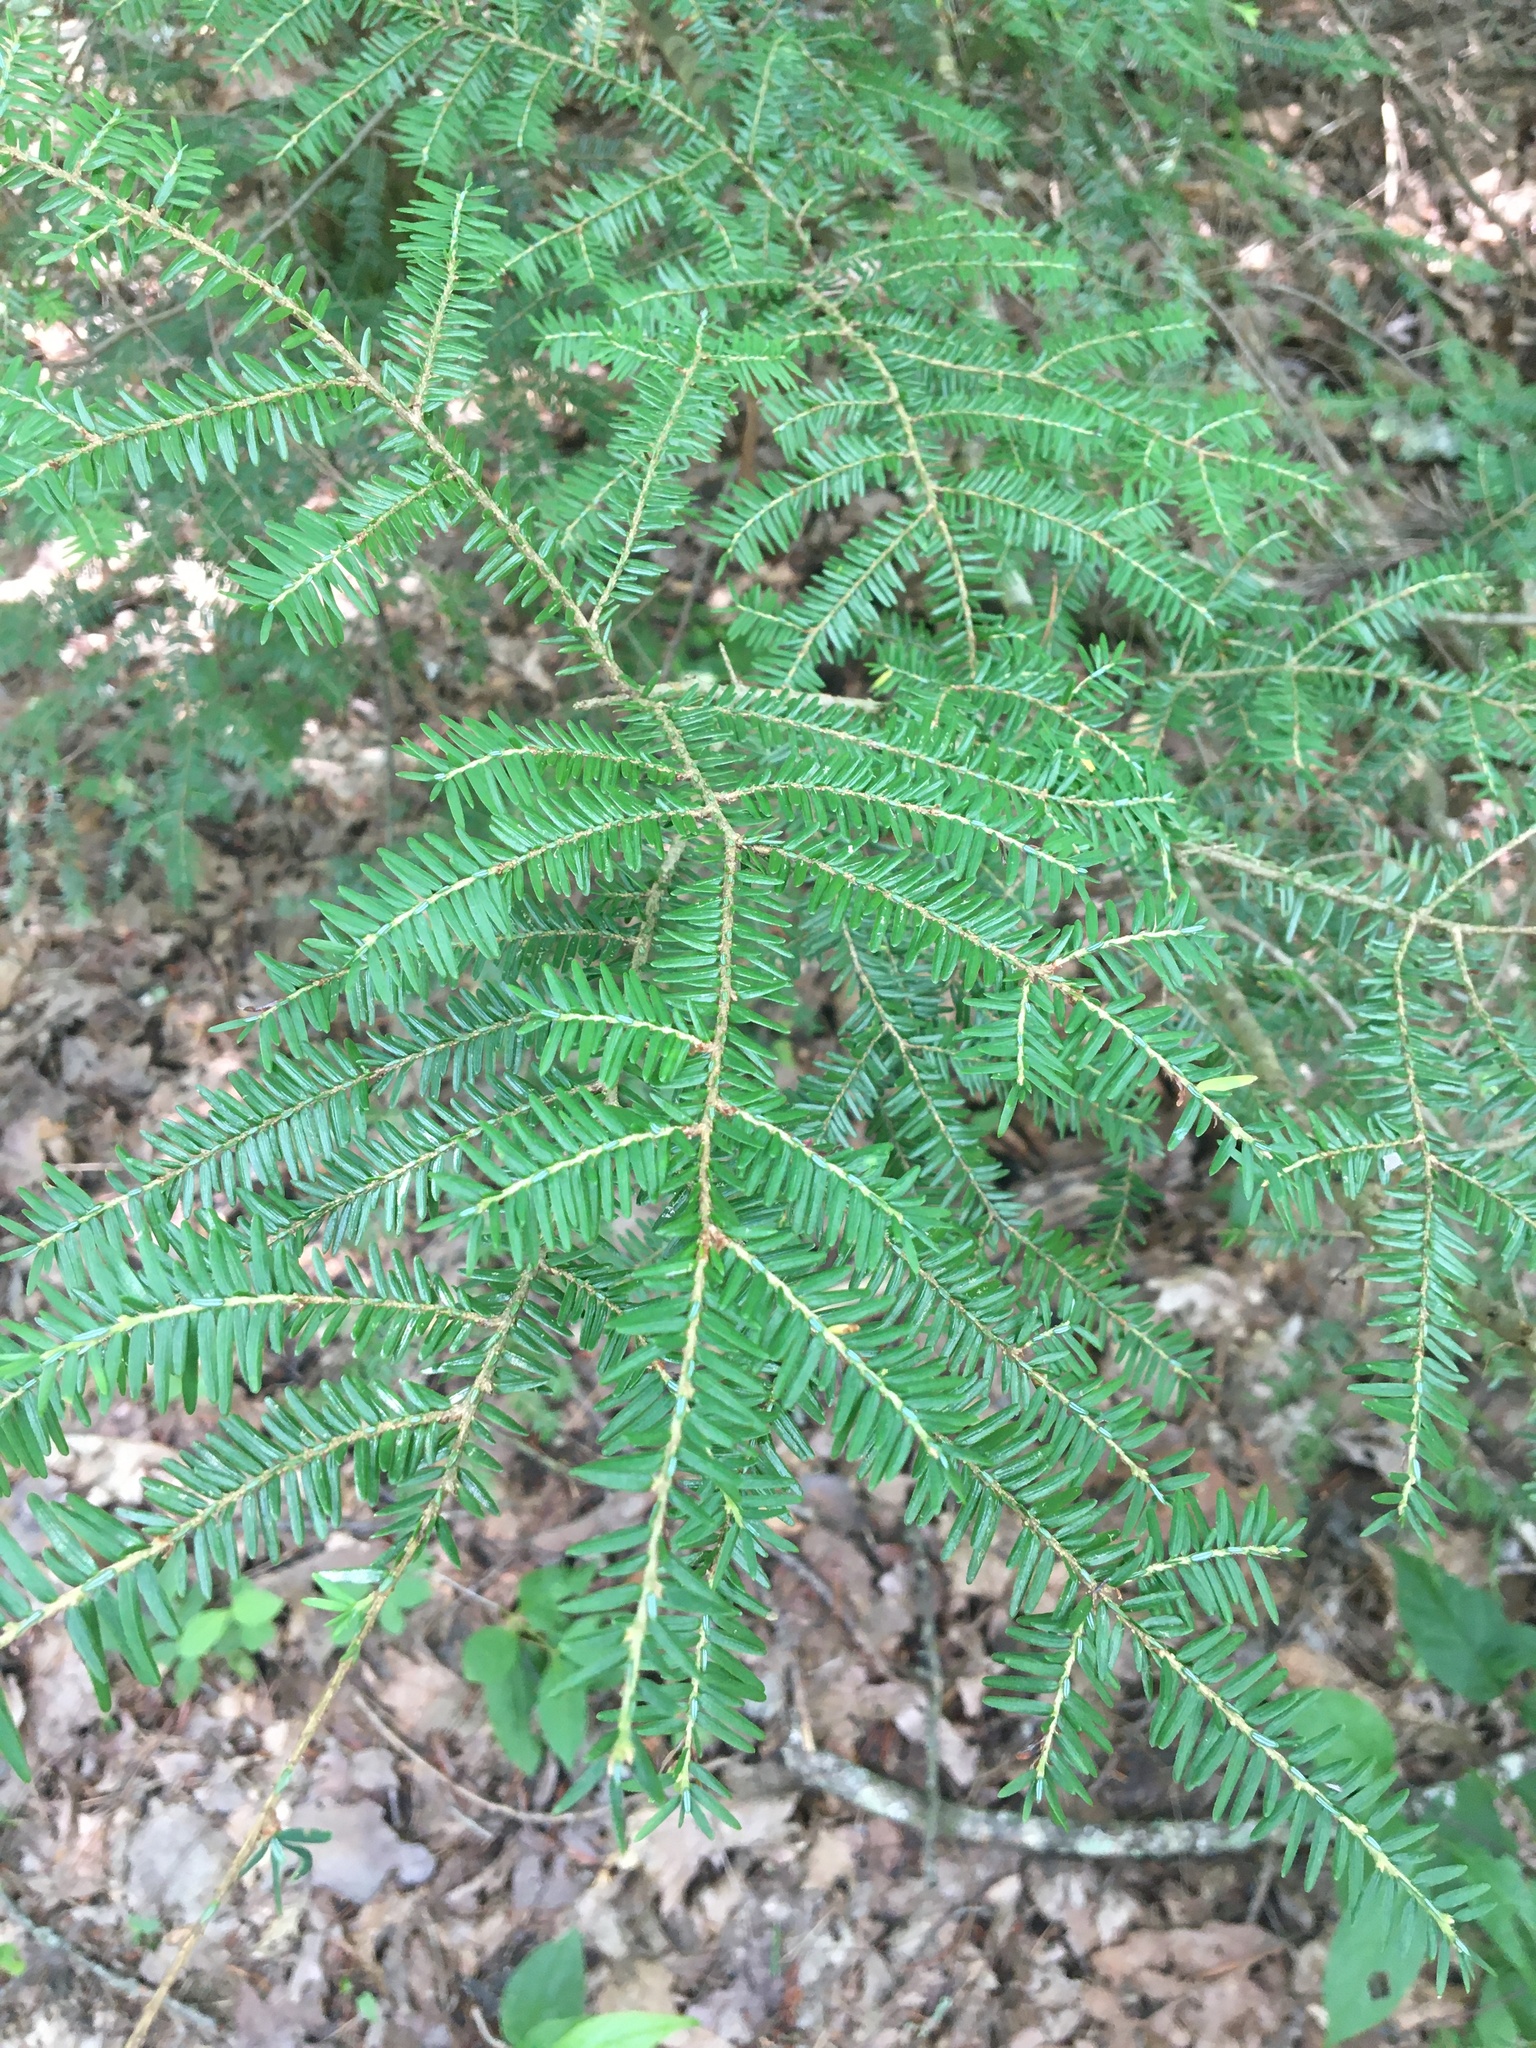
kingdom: Plantae
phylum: Tracheophyta
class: Pinopsida
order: Pinales
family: Pinaceae
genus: Tsuga
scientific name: Tsuga canadensis
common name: Eastern hemlock
